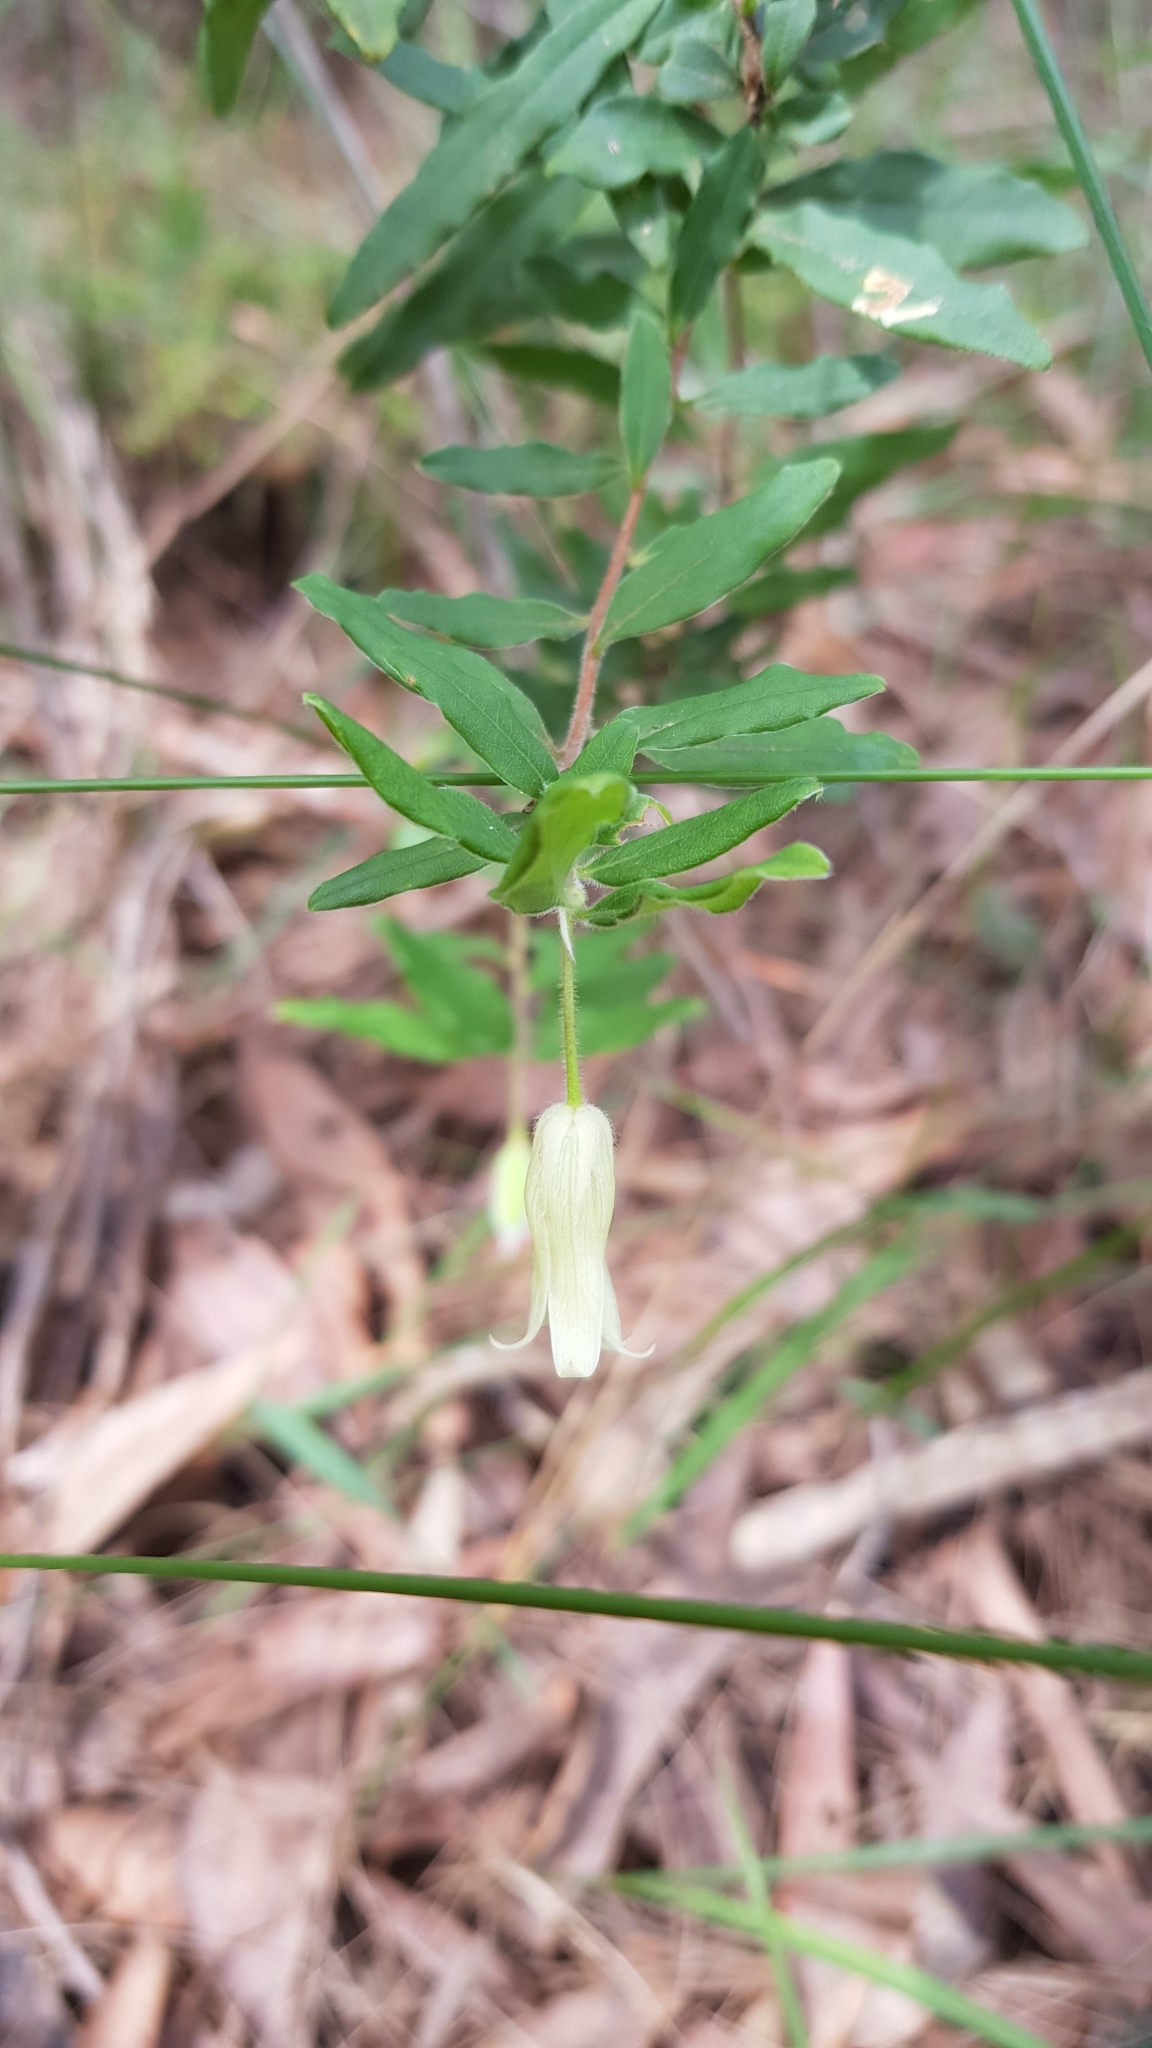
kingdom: Plantae
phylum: Tracheophyta
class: Magnoliopsida
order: Apiales
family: Pittosporaceae
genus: Billardiera
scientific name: Billardiera scandens
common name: Apple-berry
